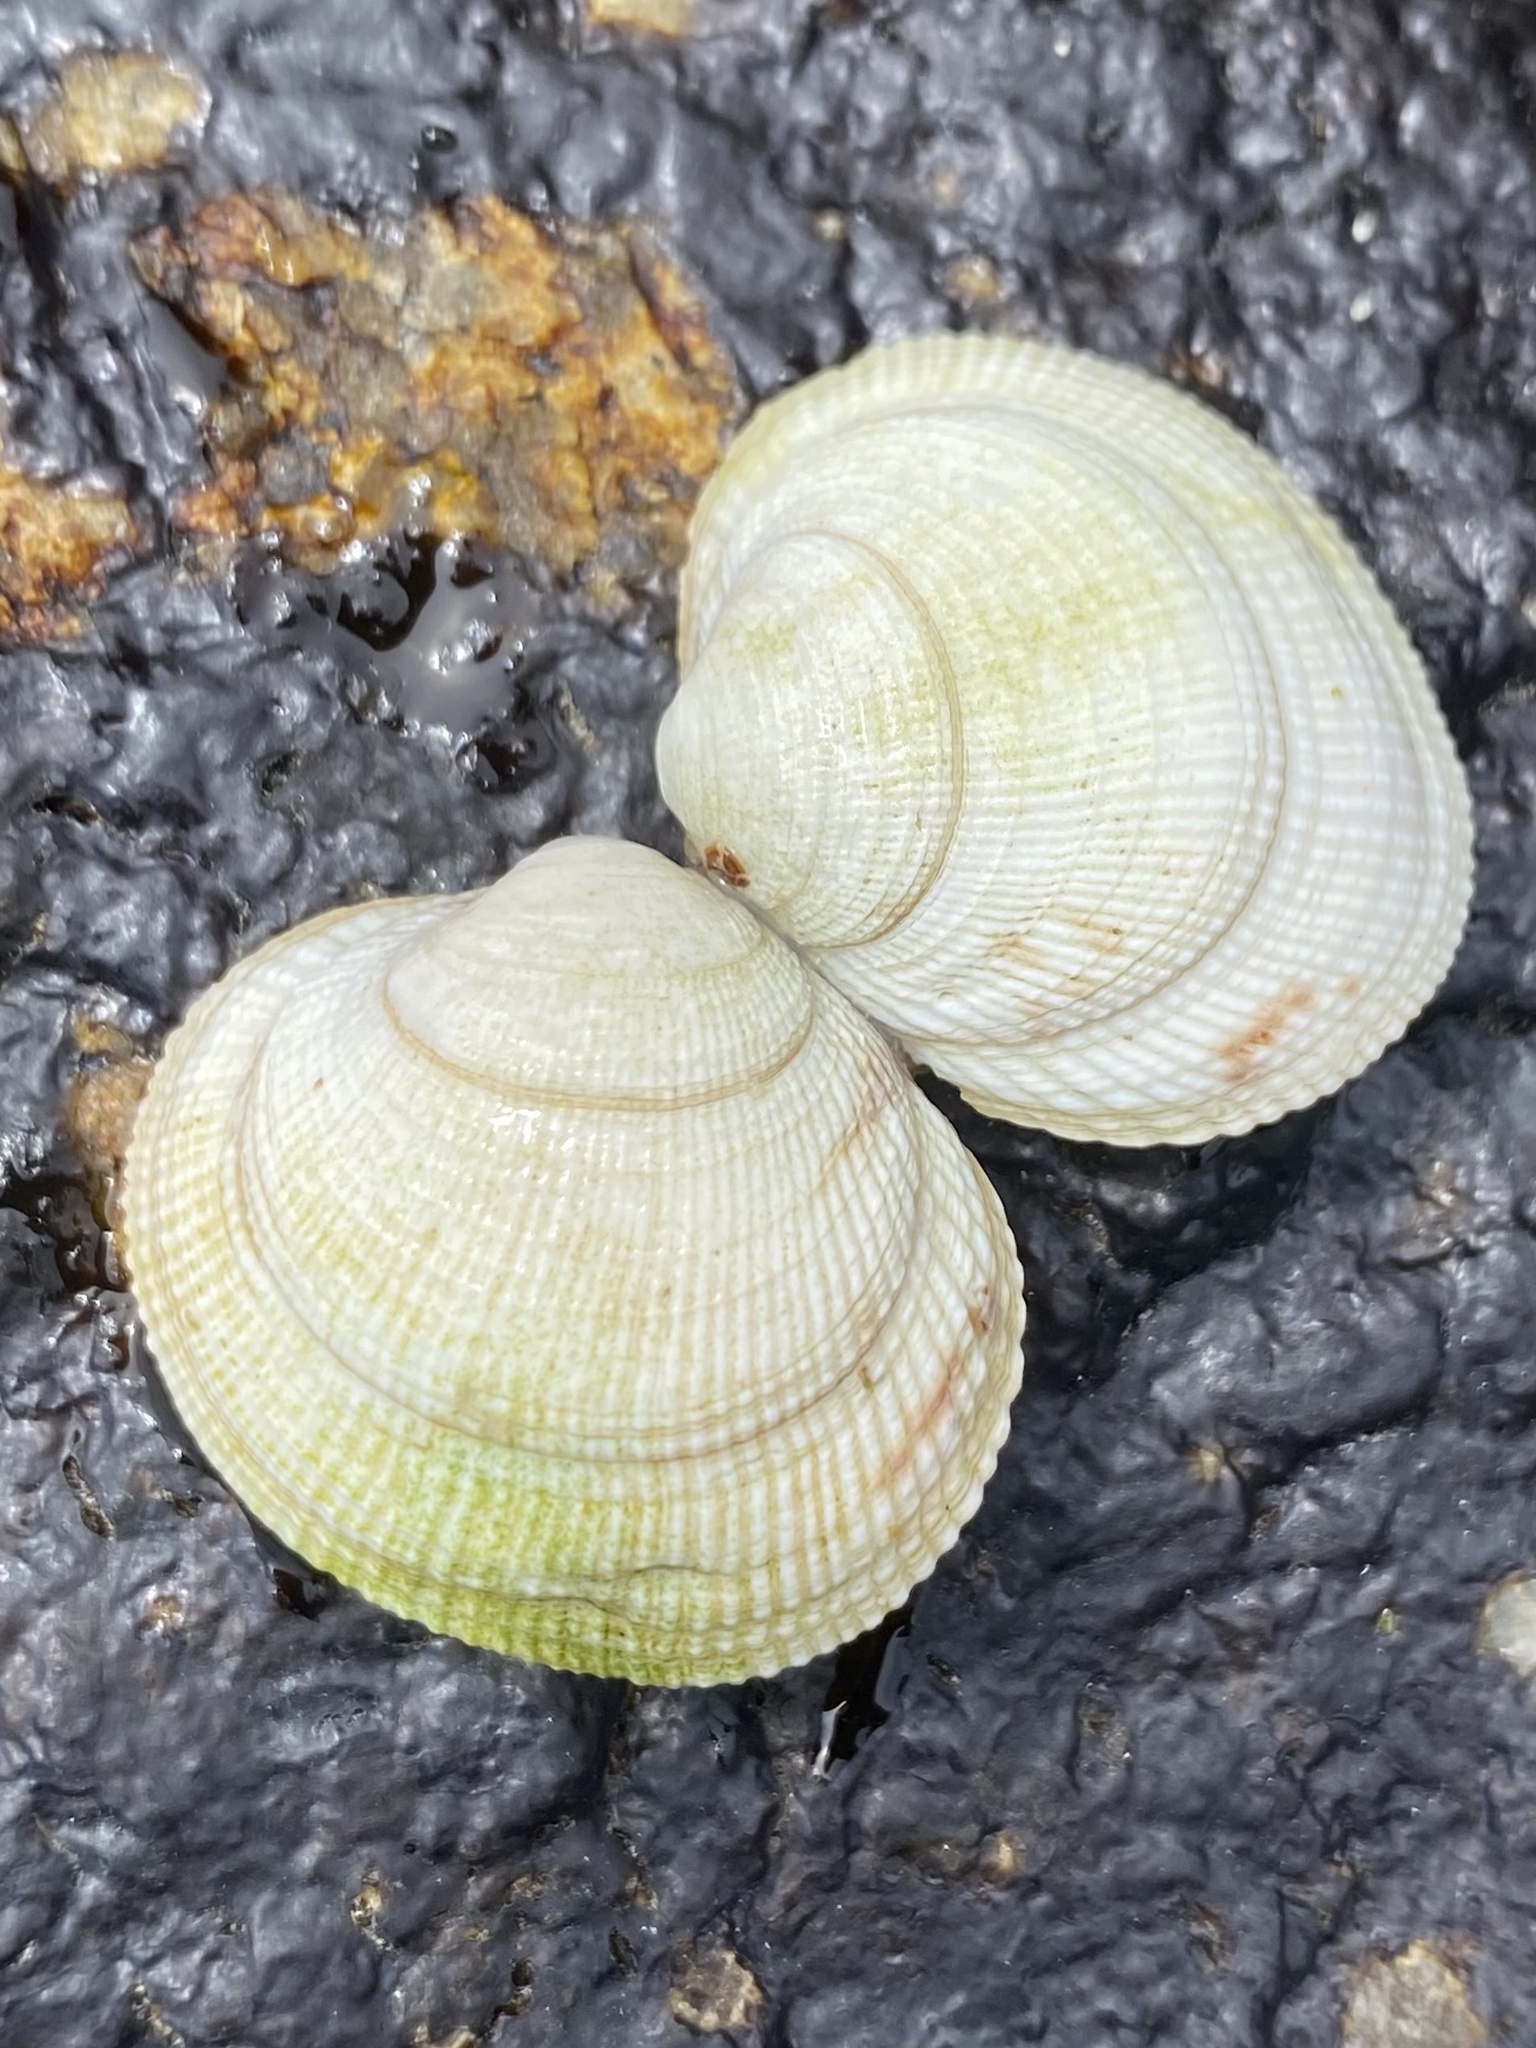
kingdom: Animalia
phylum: Mollusca
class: Bivalvia
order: Venerida
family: Veneridae
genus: Leukoma
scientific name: Leukoma staminea
